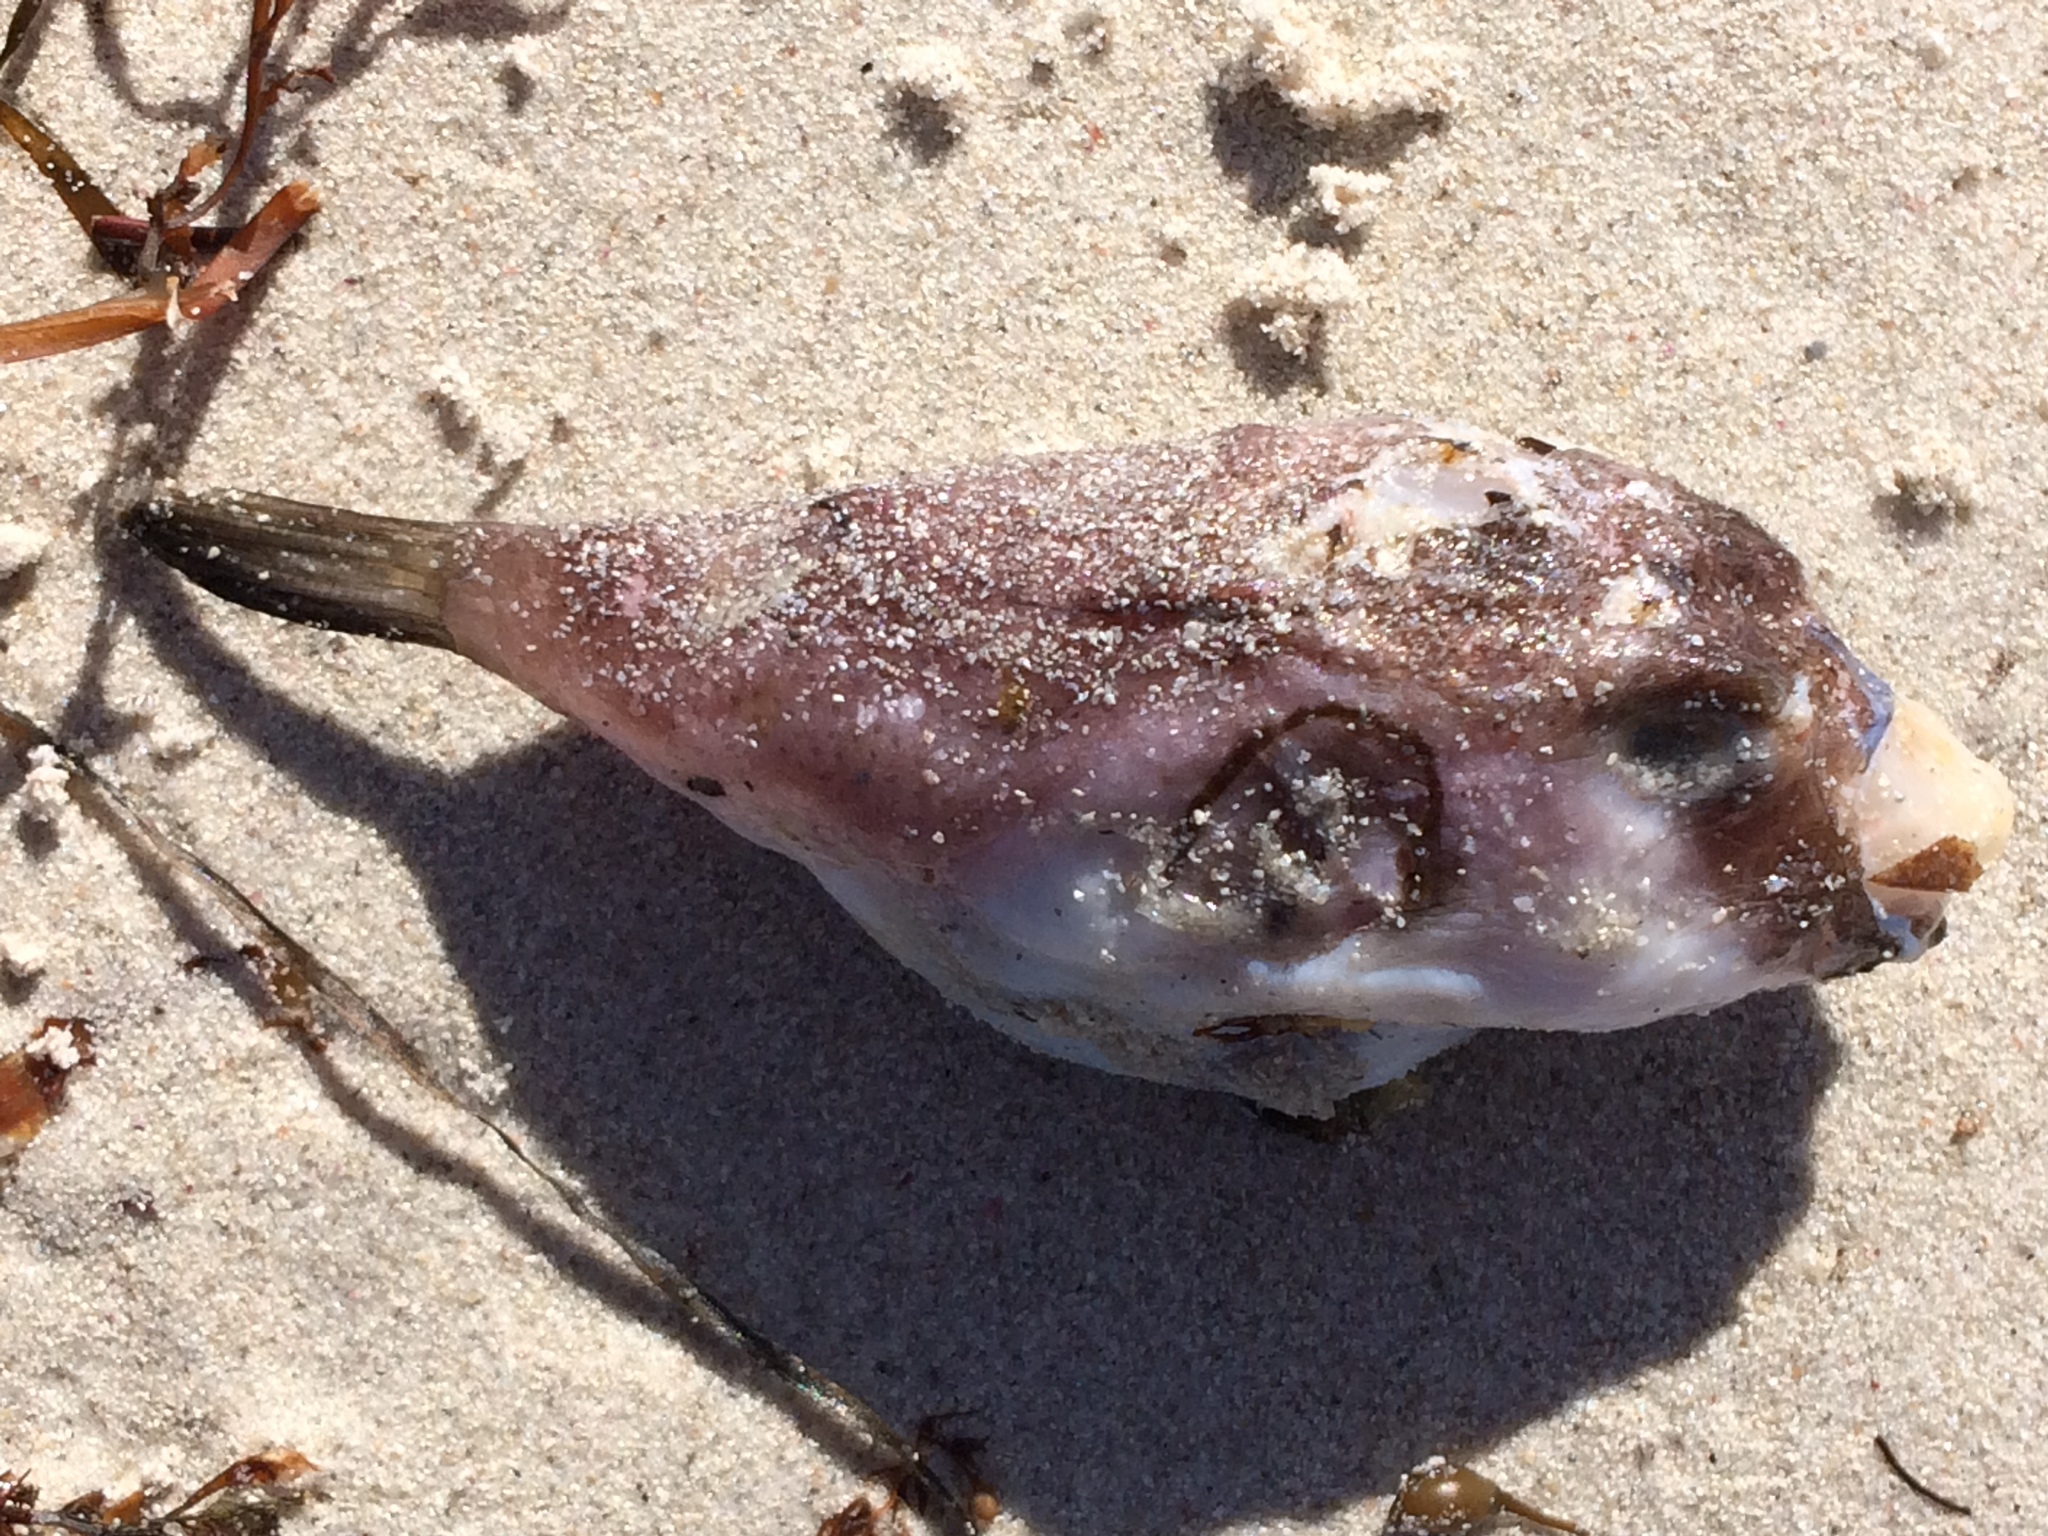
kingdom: Animalia
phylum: Chordata
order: Tetraodontiformes
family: Tetraodontidae
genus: Omegophora
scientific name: Omegophora armilla
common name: Ringed pufferfish
